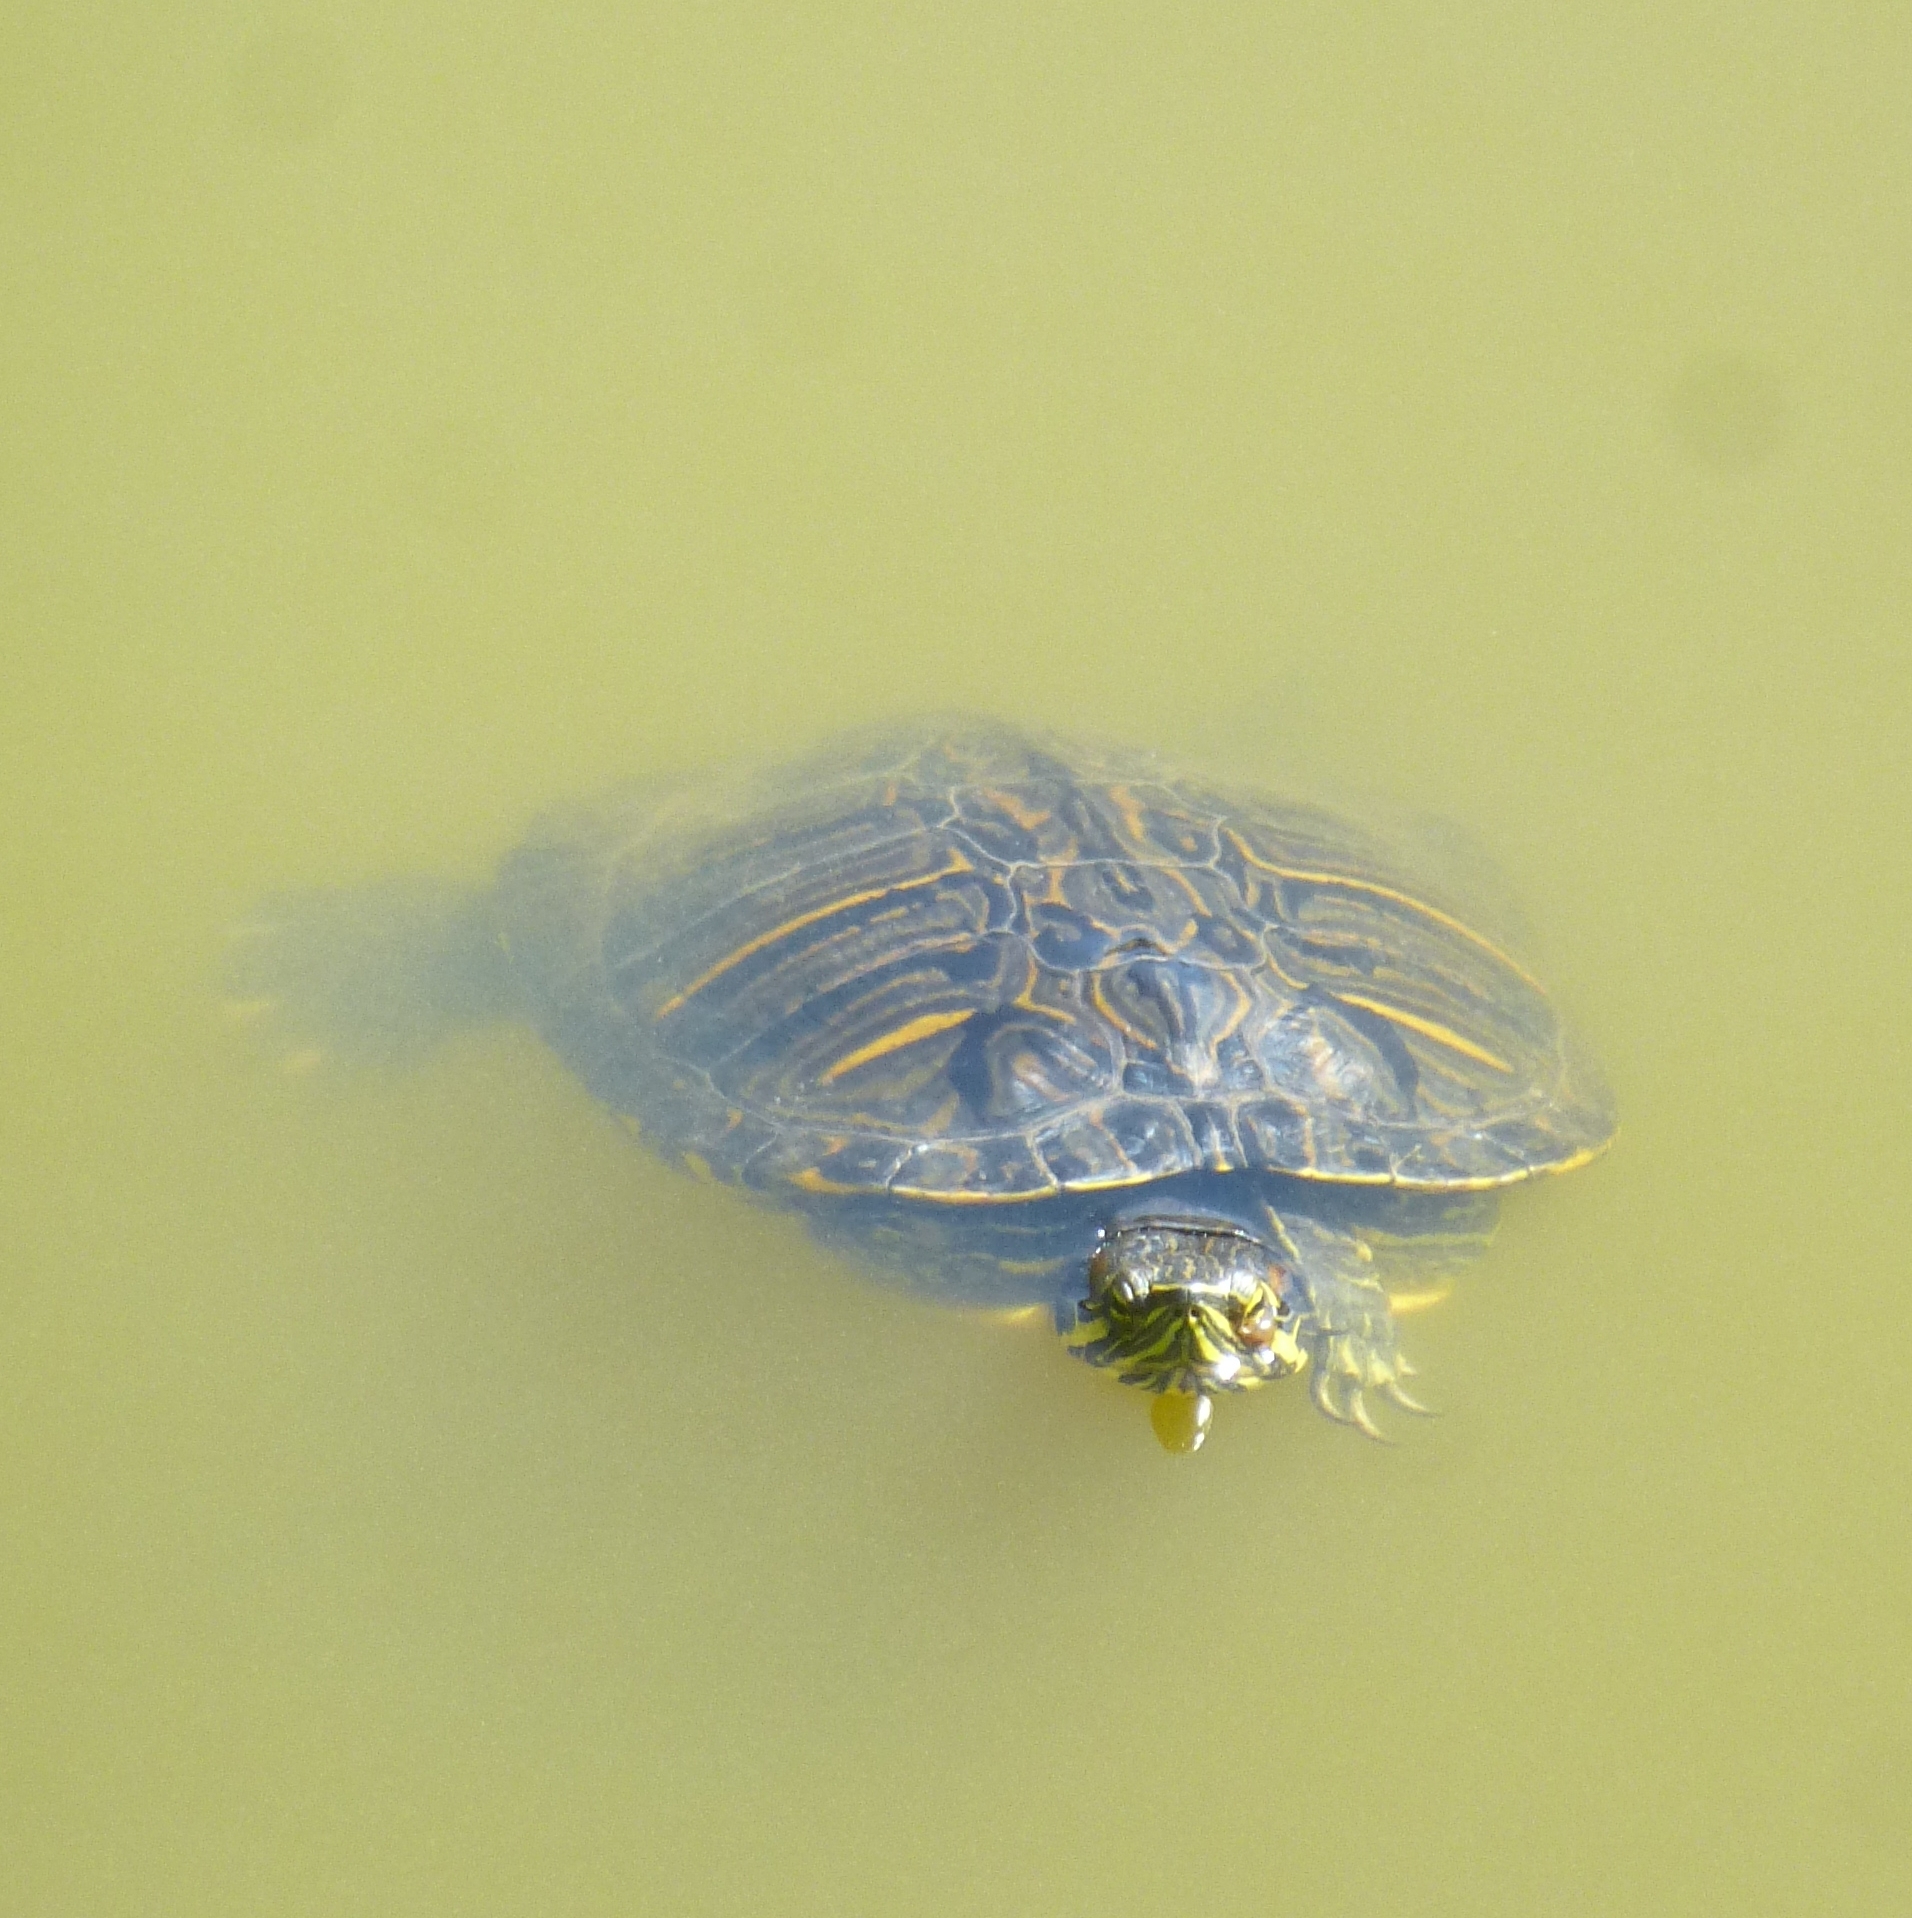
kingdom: Animalia
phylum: Chordata
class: Testudines
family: Emydidae
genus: Trachemys
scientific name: Trachemys scripta
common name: Slider
